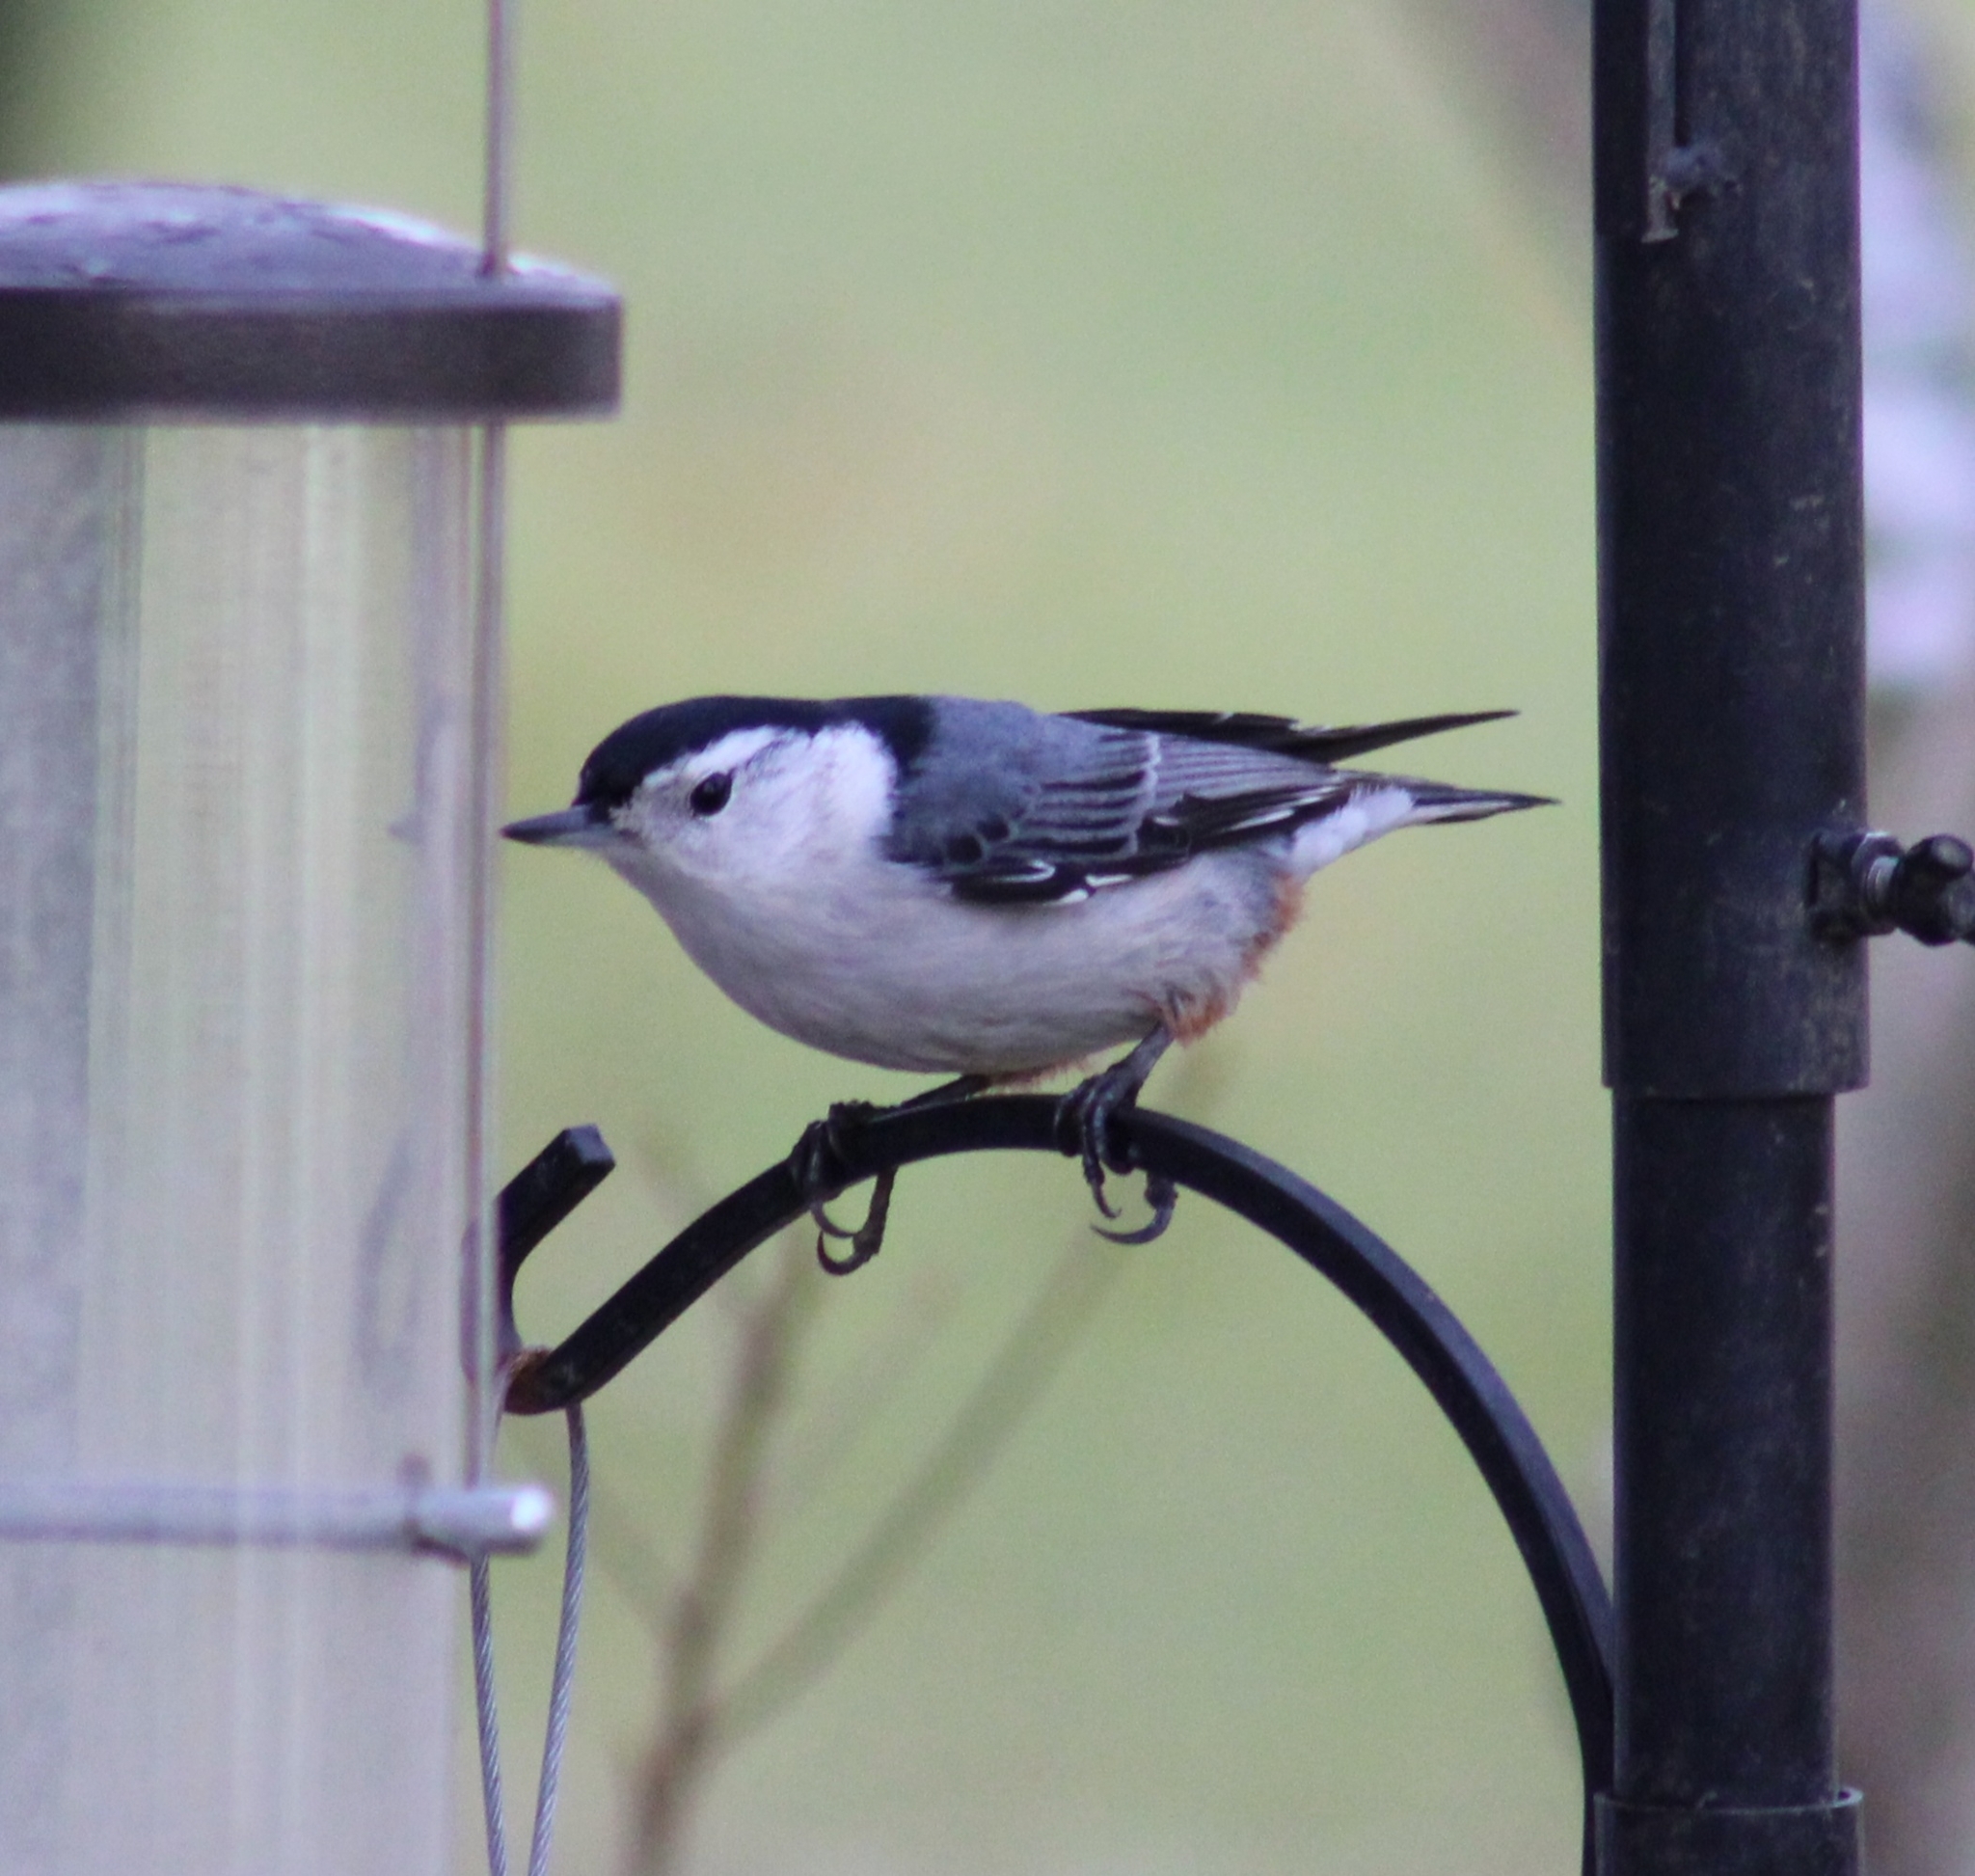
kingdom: Animalia
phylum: Chordata
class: Aves
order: Passeriformes
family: Sittidae
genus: Sitta
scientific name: Sitta carolinensis
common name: White-breasted nuthatch
